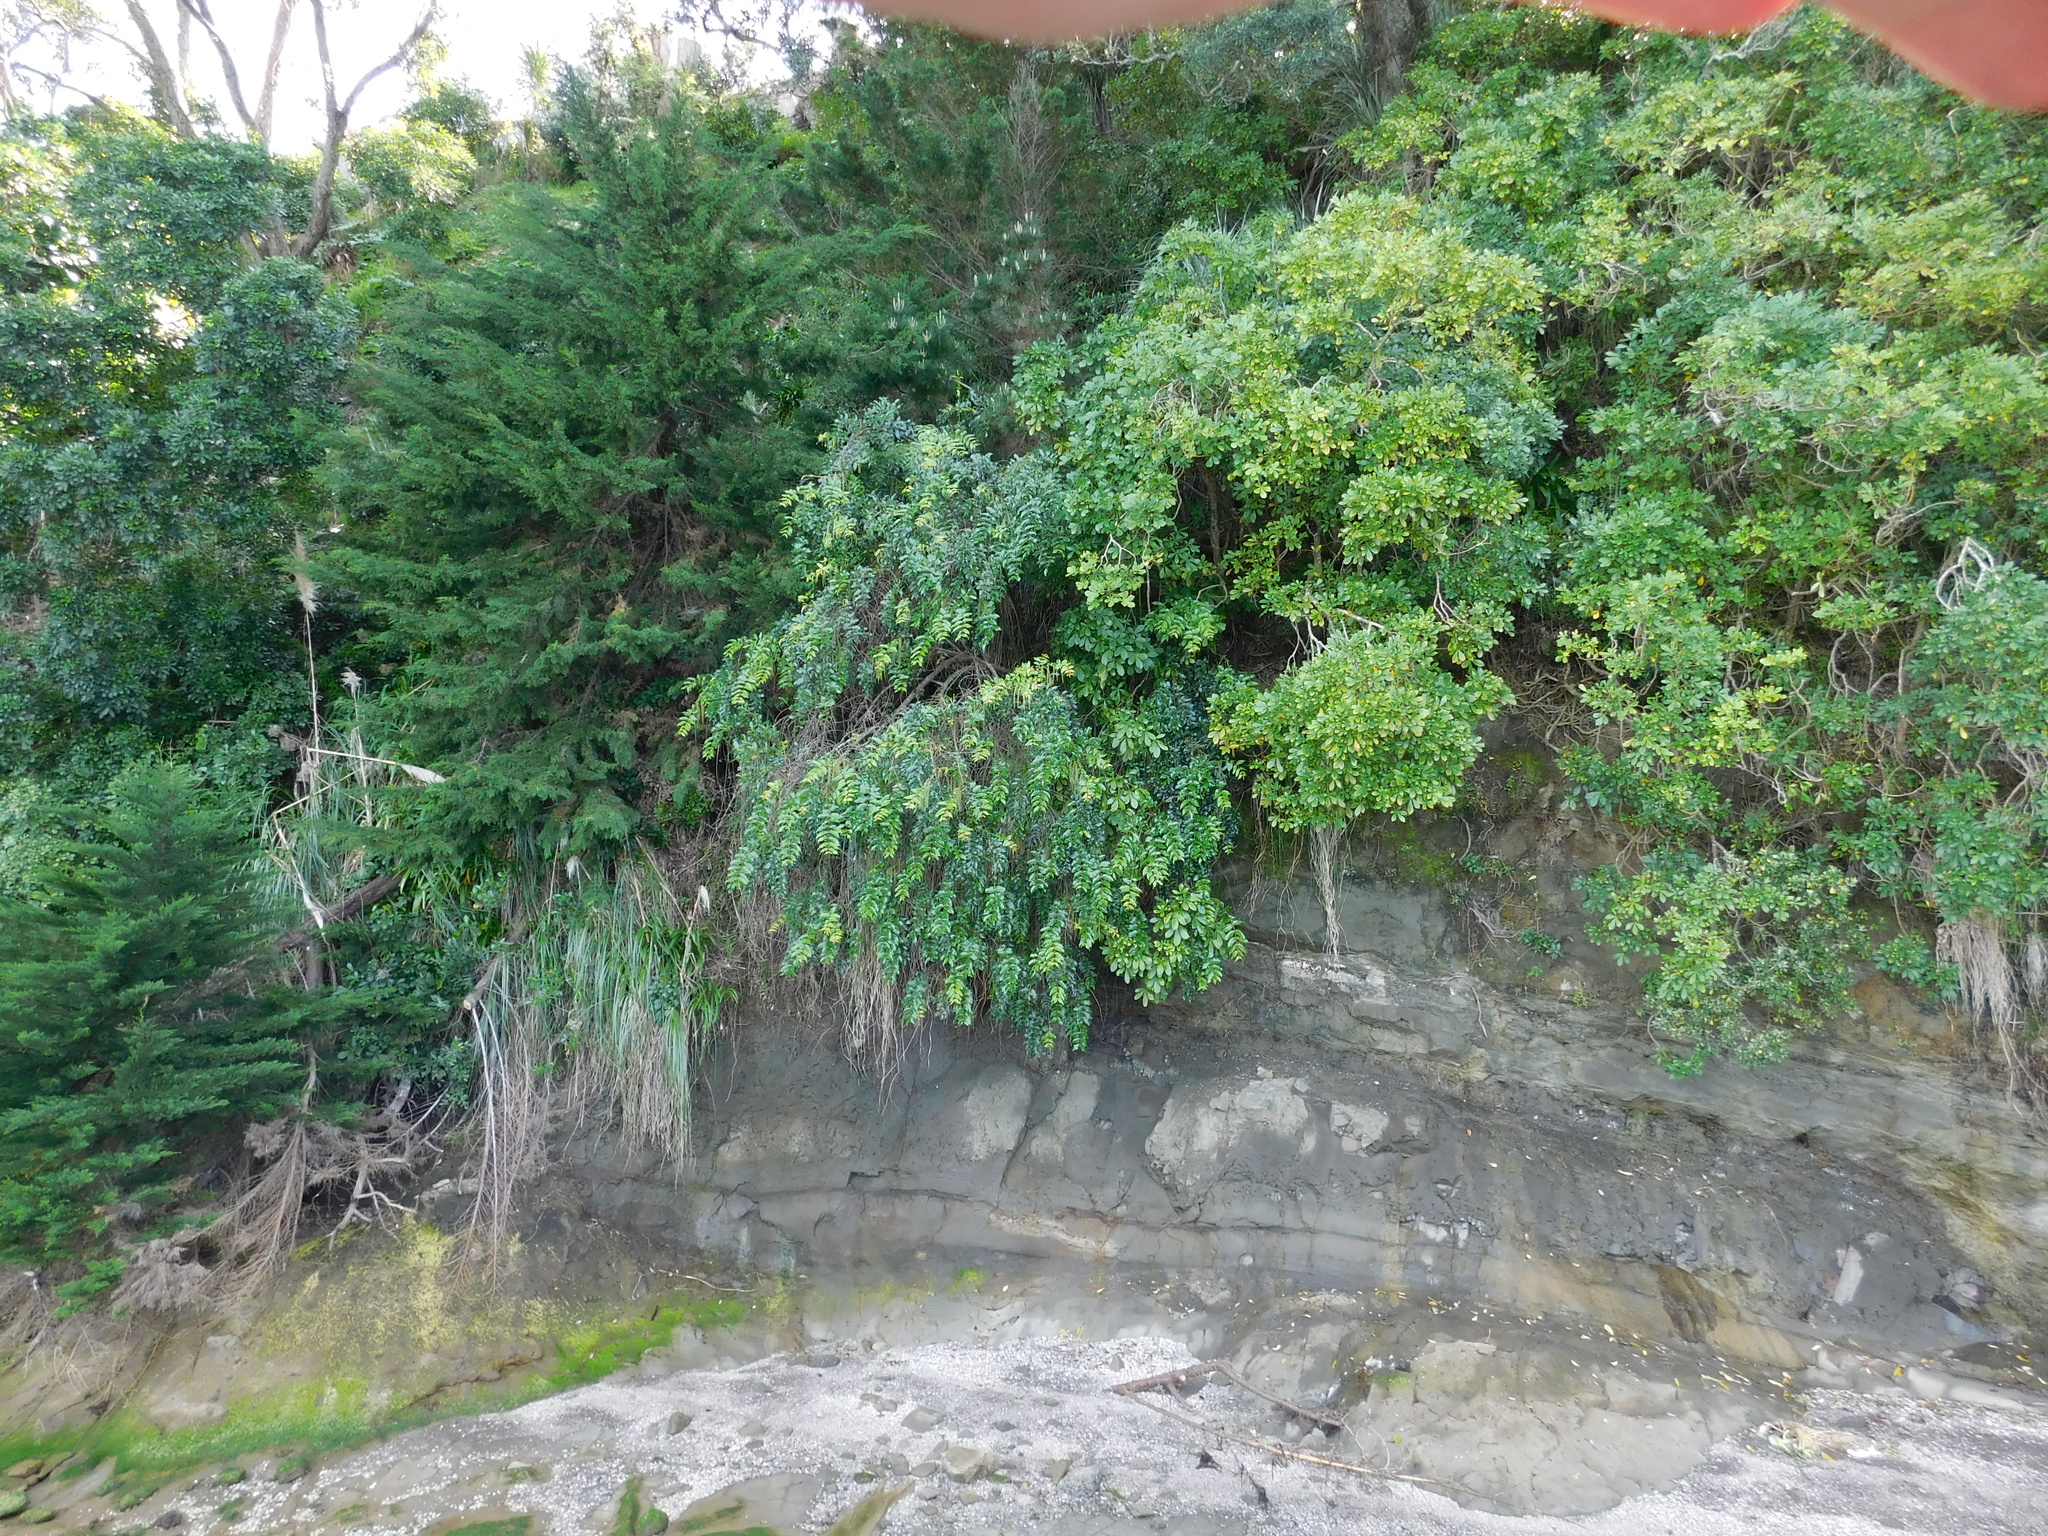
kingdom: Plantae
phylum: Tracheophyta
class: Magnoliopsida
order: Cucurbitales
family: Coriariaceae
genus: Coriaria
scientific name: Coriaria arborea
